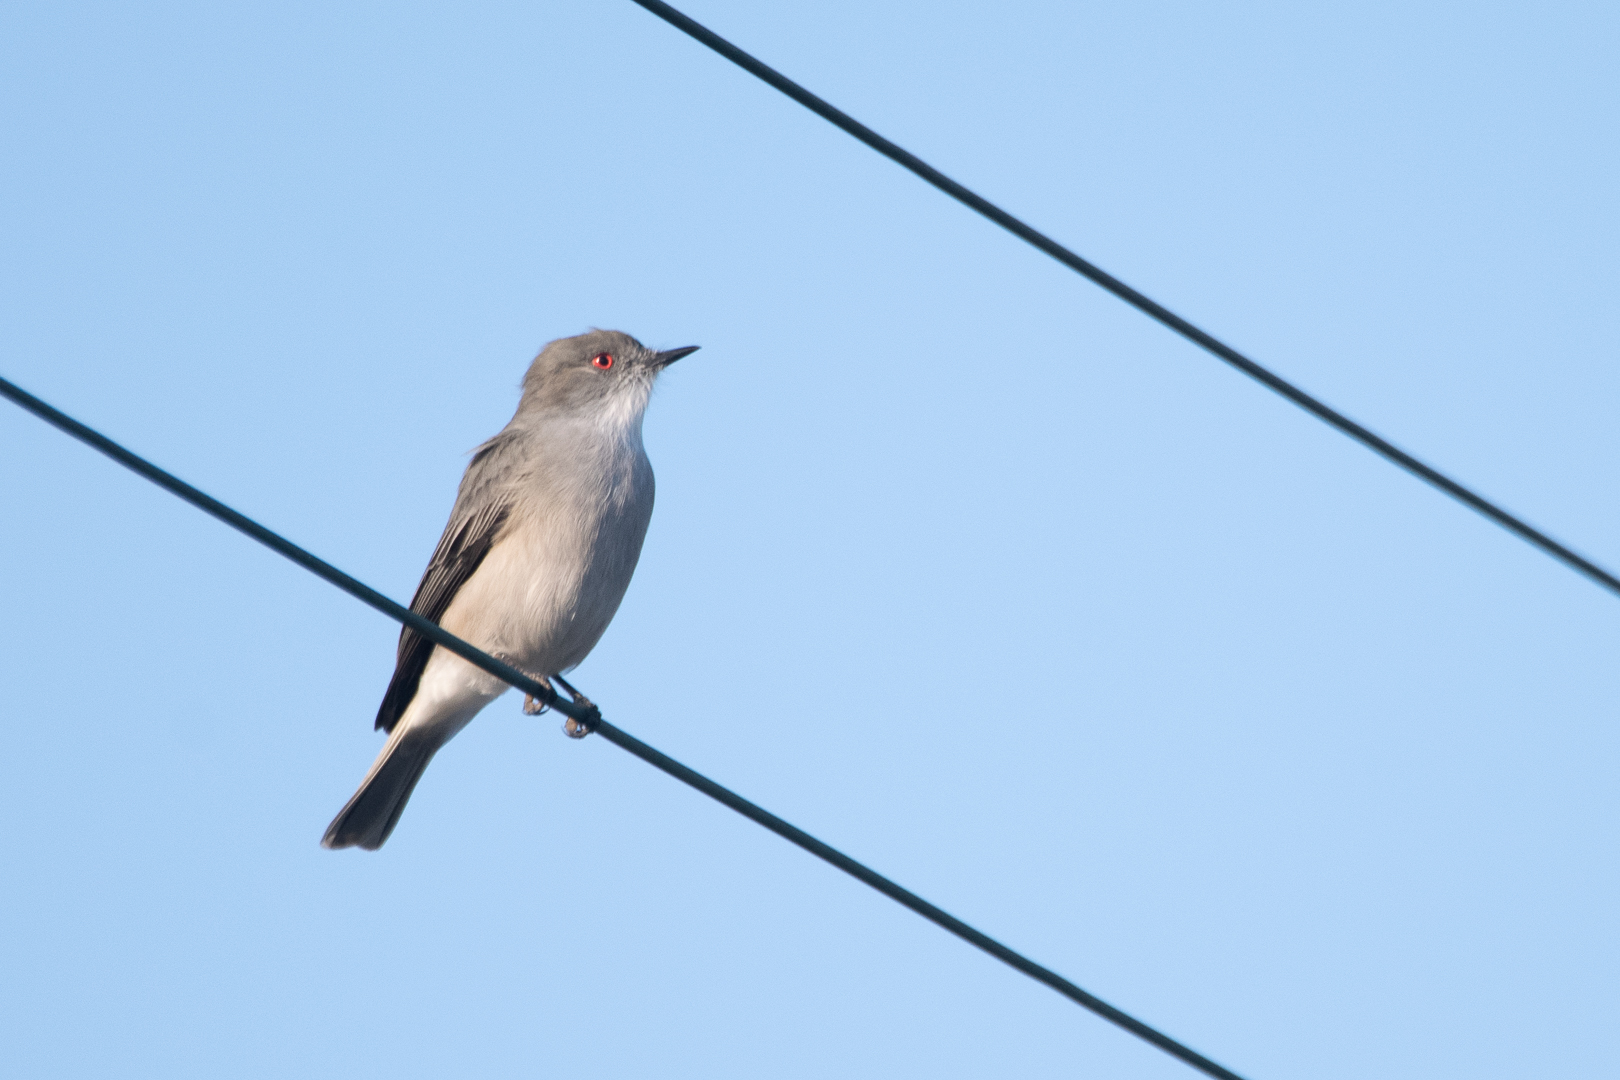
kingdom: Animalia
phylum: Chordata
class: Aves
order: Passeriformes
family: Tyrannidae
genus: Xolmis
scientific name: Xolmis pyrope
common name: Fire-eyed diucon
